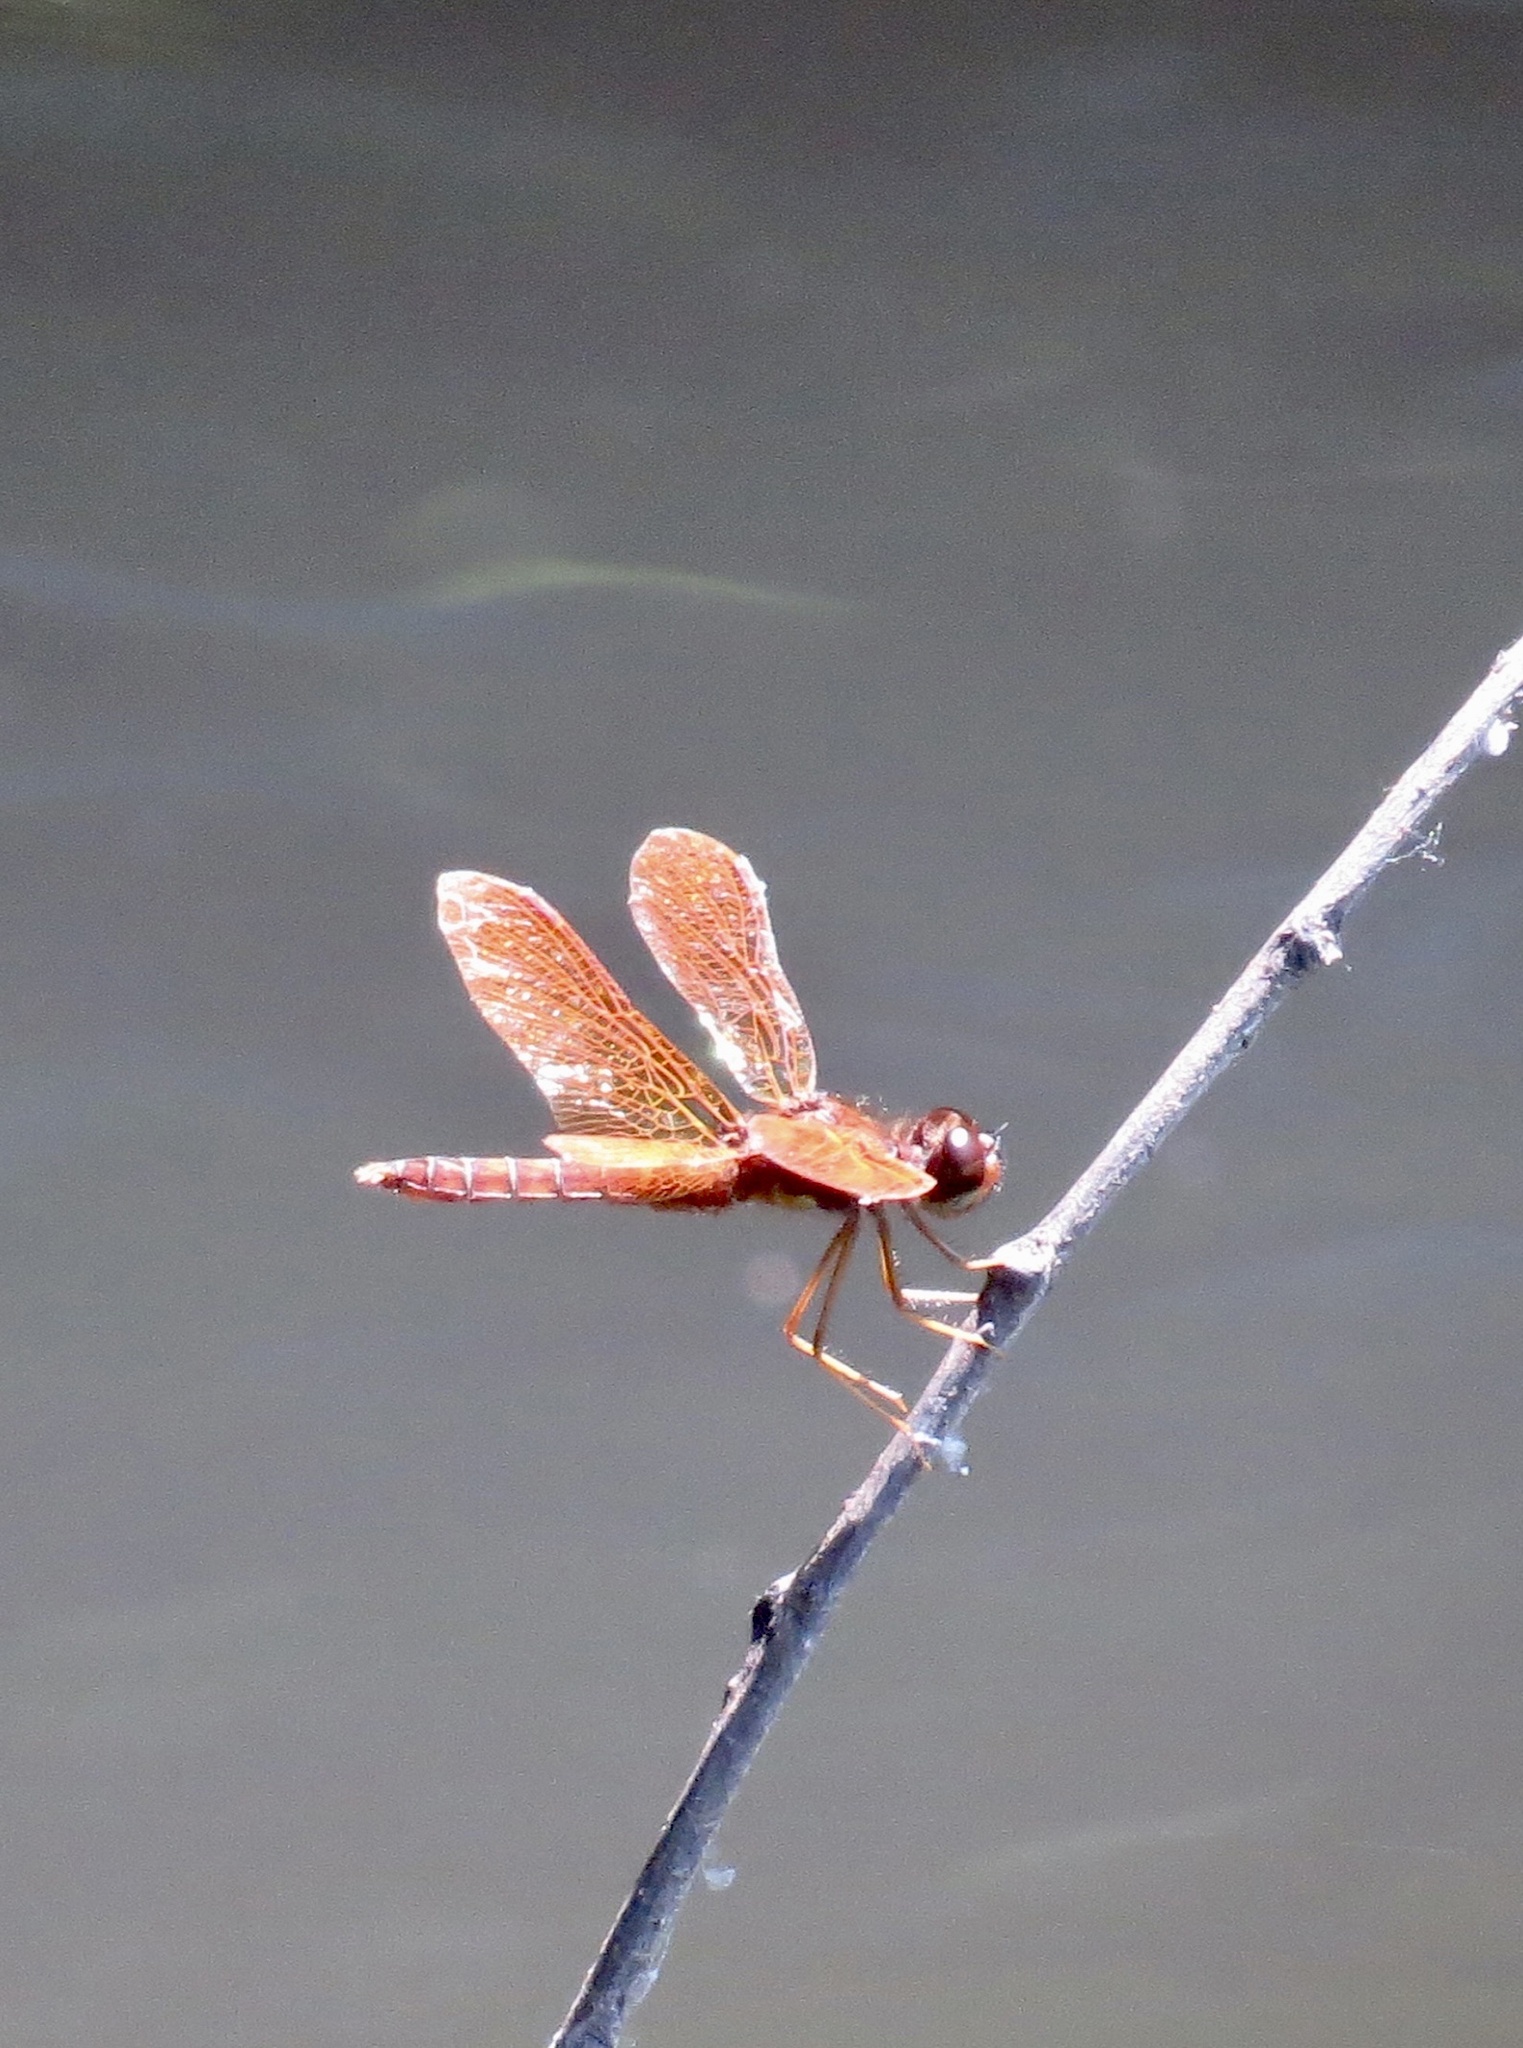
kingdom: Animalia
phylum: Arthropoda
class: Insecta
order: Odonata
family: Libellulidae
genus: Perithemis
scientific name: Perithemis tenera
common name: Eastern amberwing
